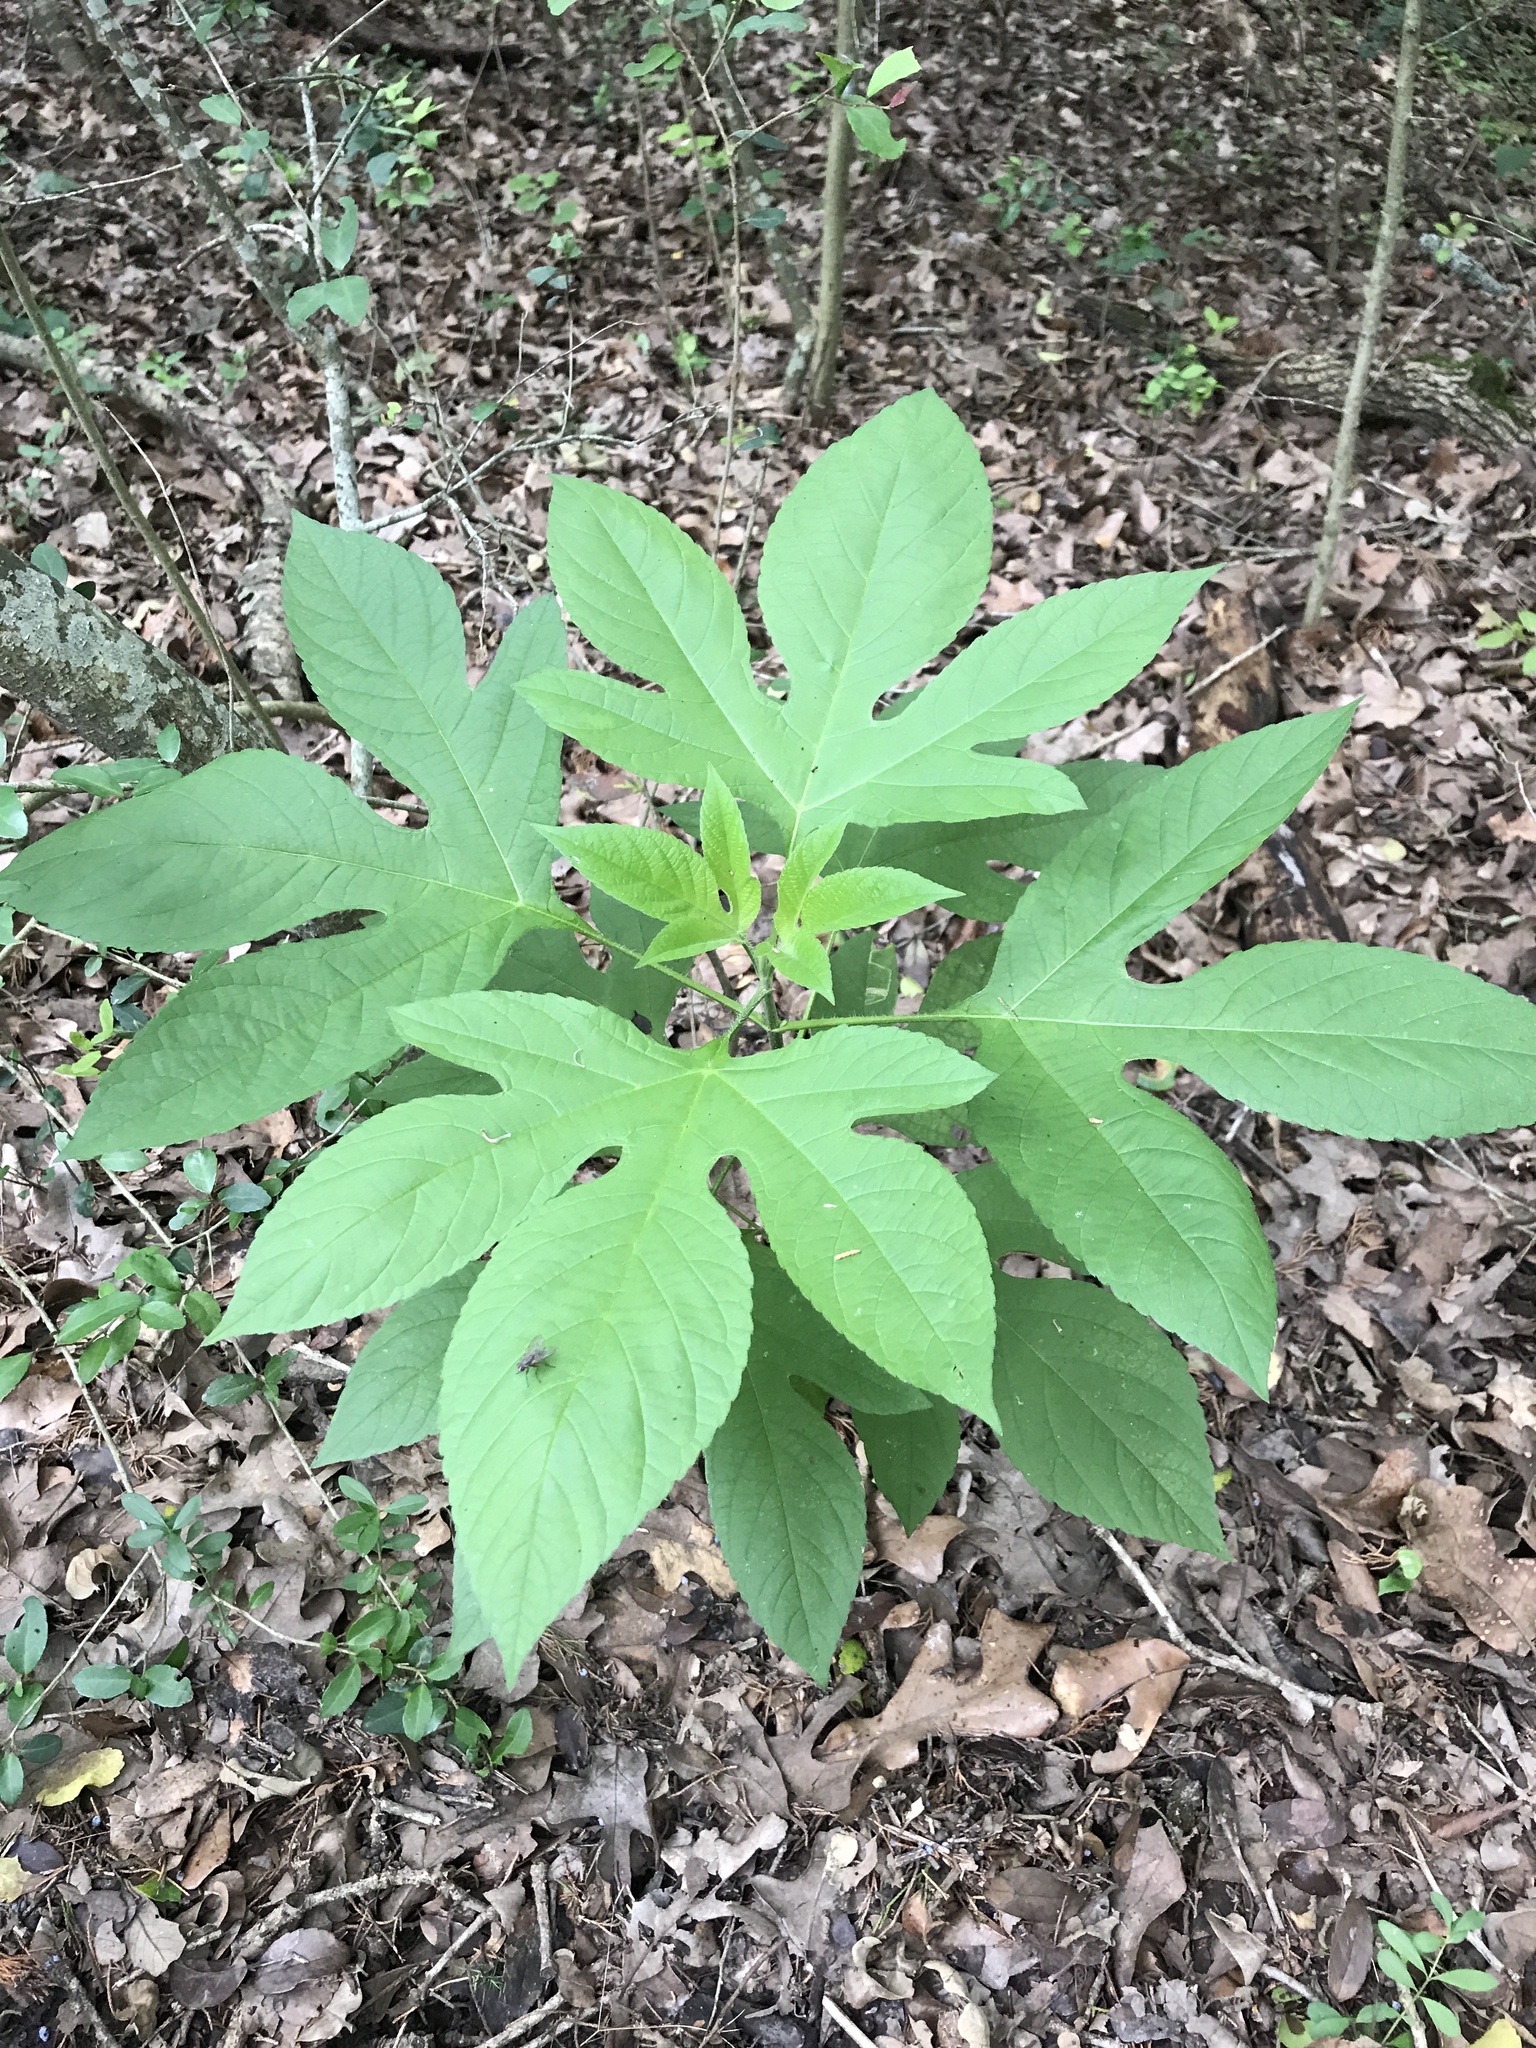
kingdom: Plantae
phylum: Tracheophyta
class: Magnoliopsida
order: Asterales
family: Asteraceae
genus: Ambrosia
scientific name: Ambrosia trifida
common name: Giant ragweed
